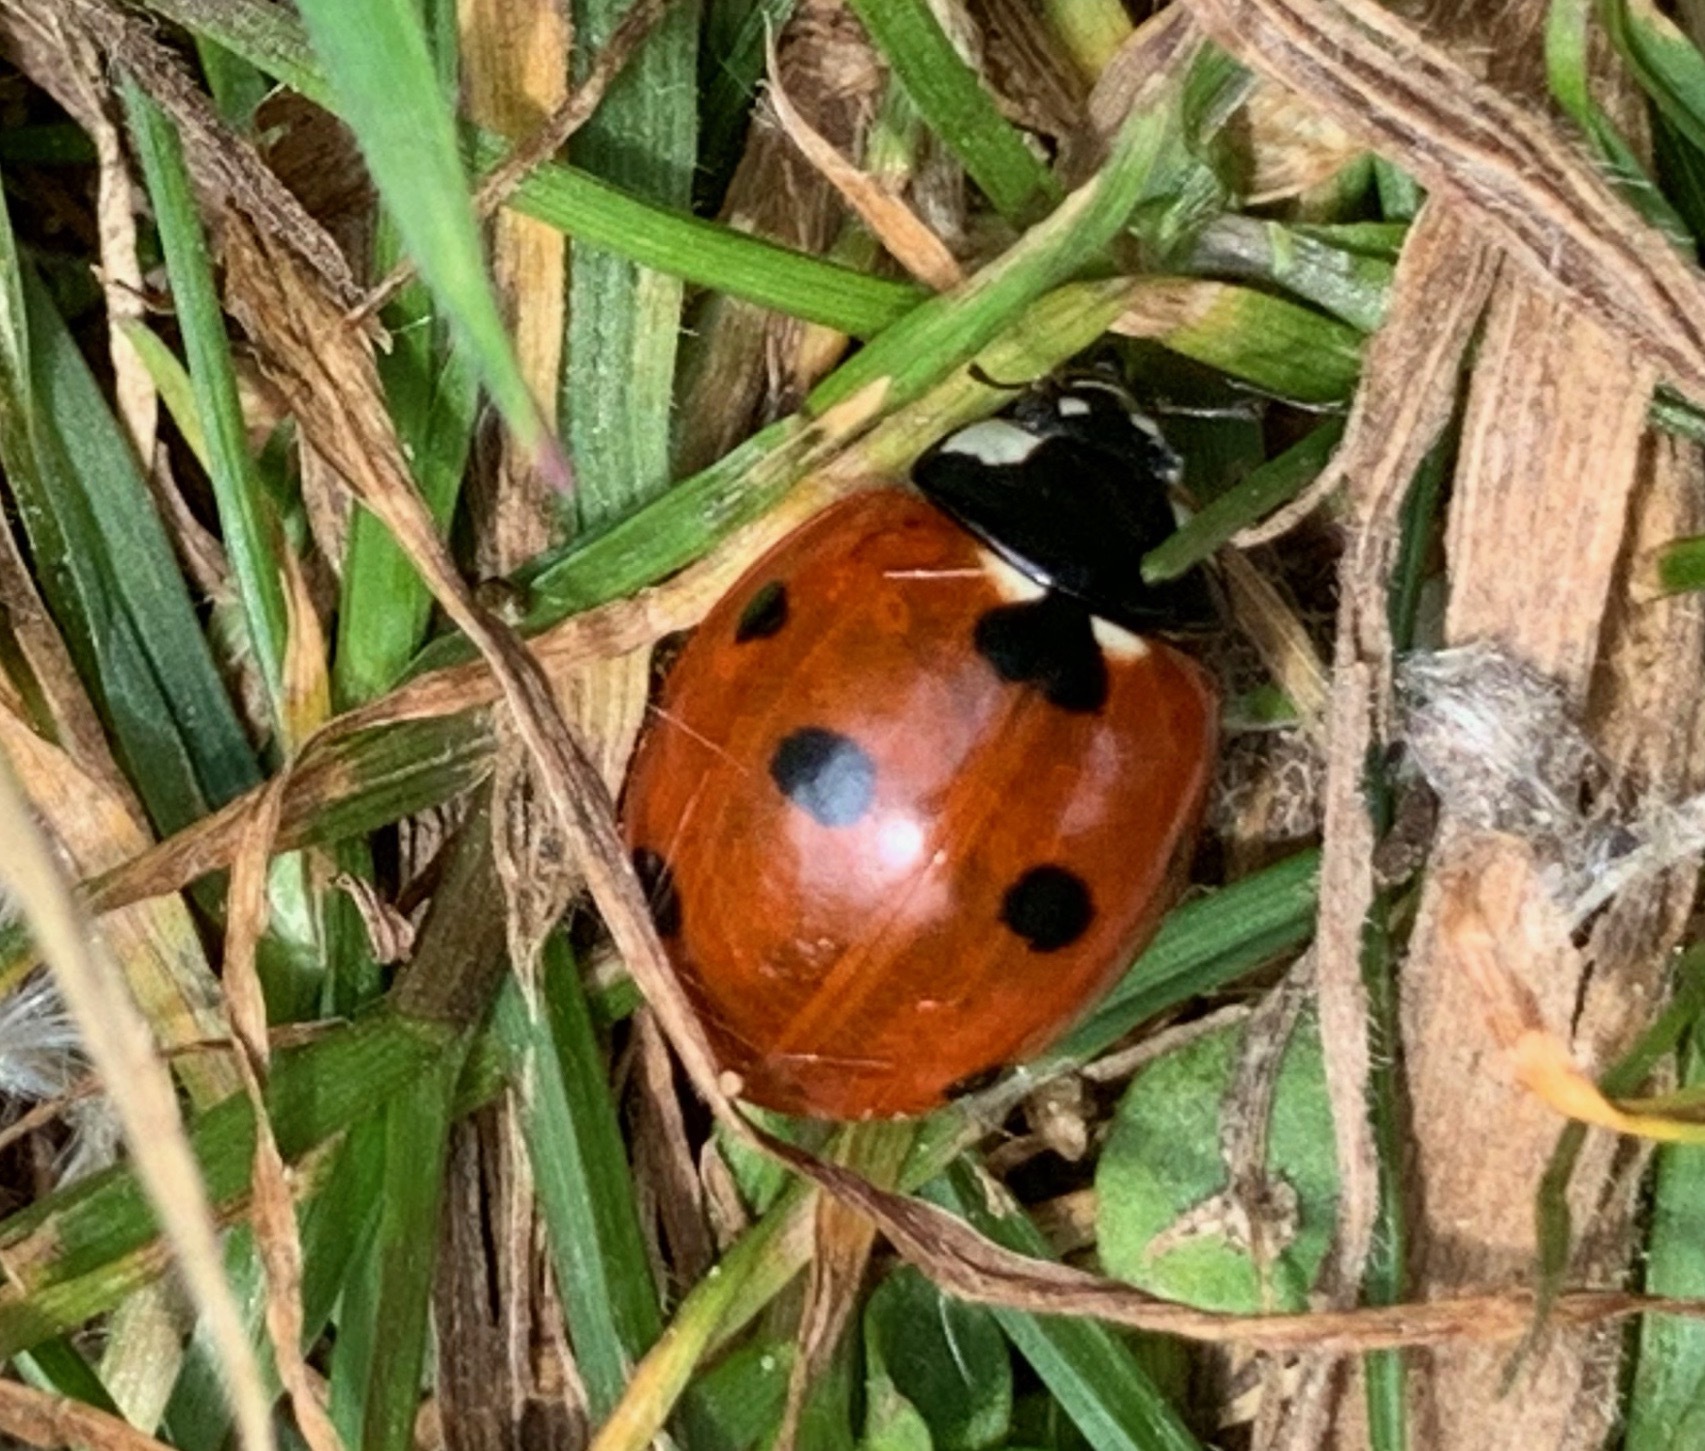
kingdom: Animalia
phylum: Arthropoda
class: Insecta
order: Coleoptera
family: Coccinellidae
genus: Coccinella
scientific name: Coccinella septempunctata
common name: Sevenspotted lady beetle
